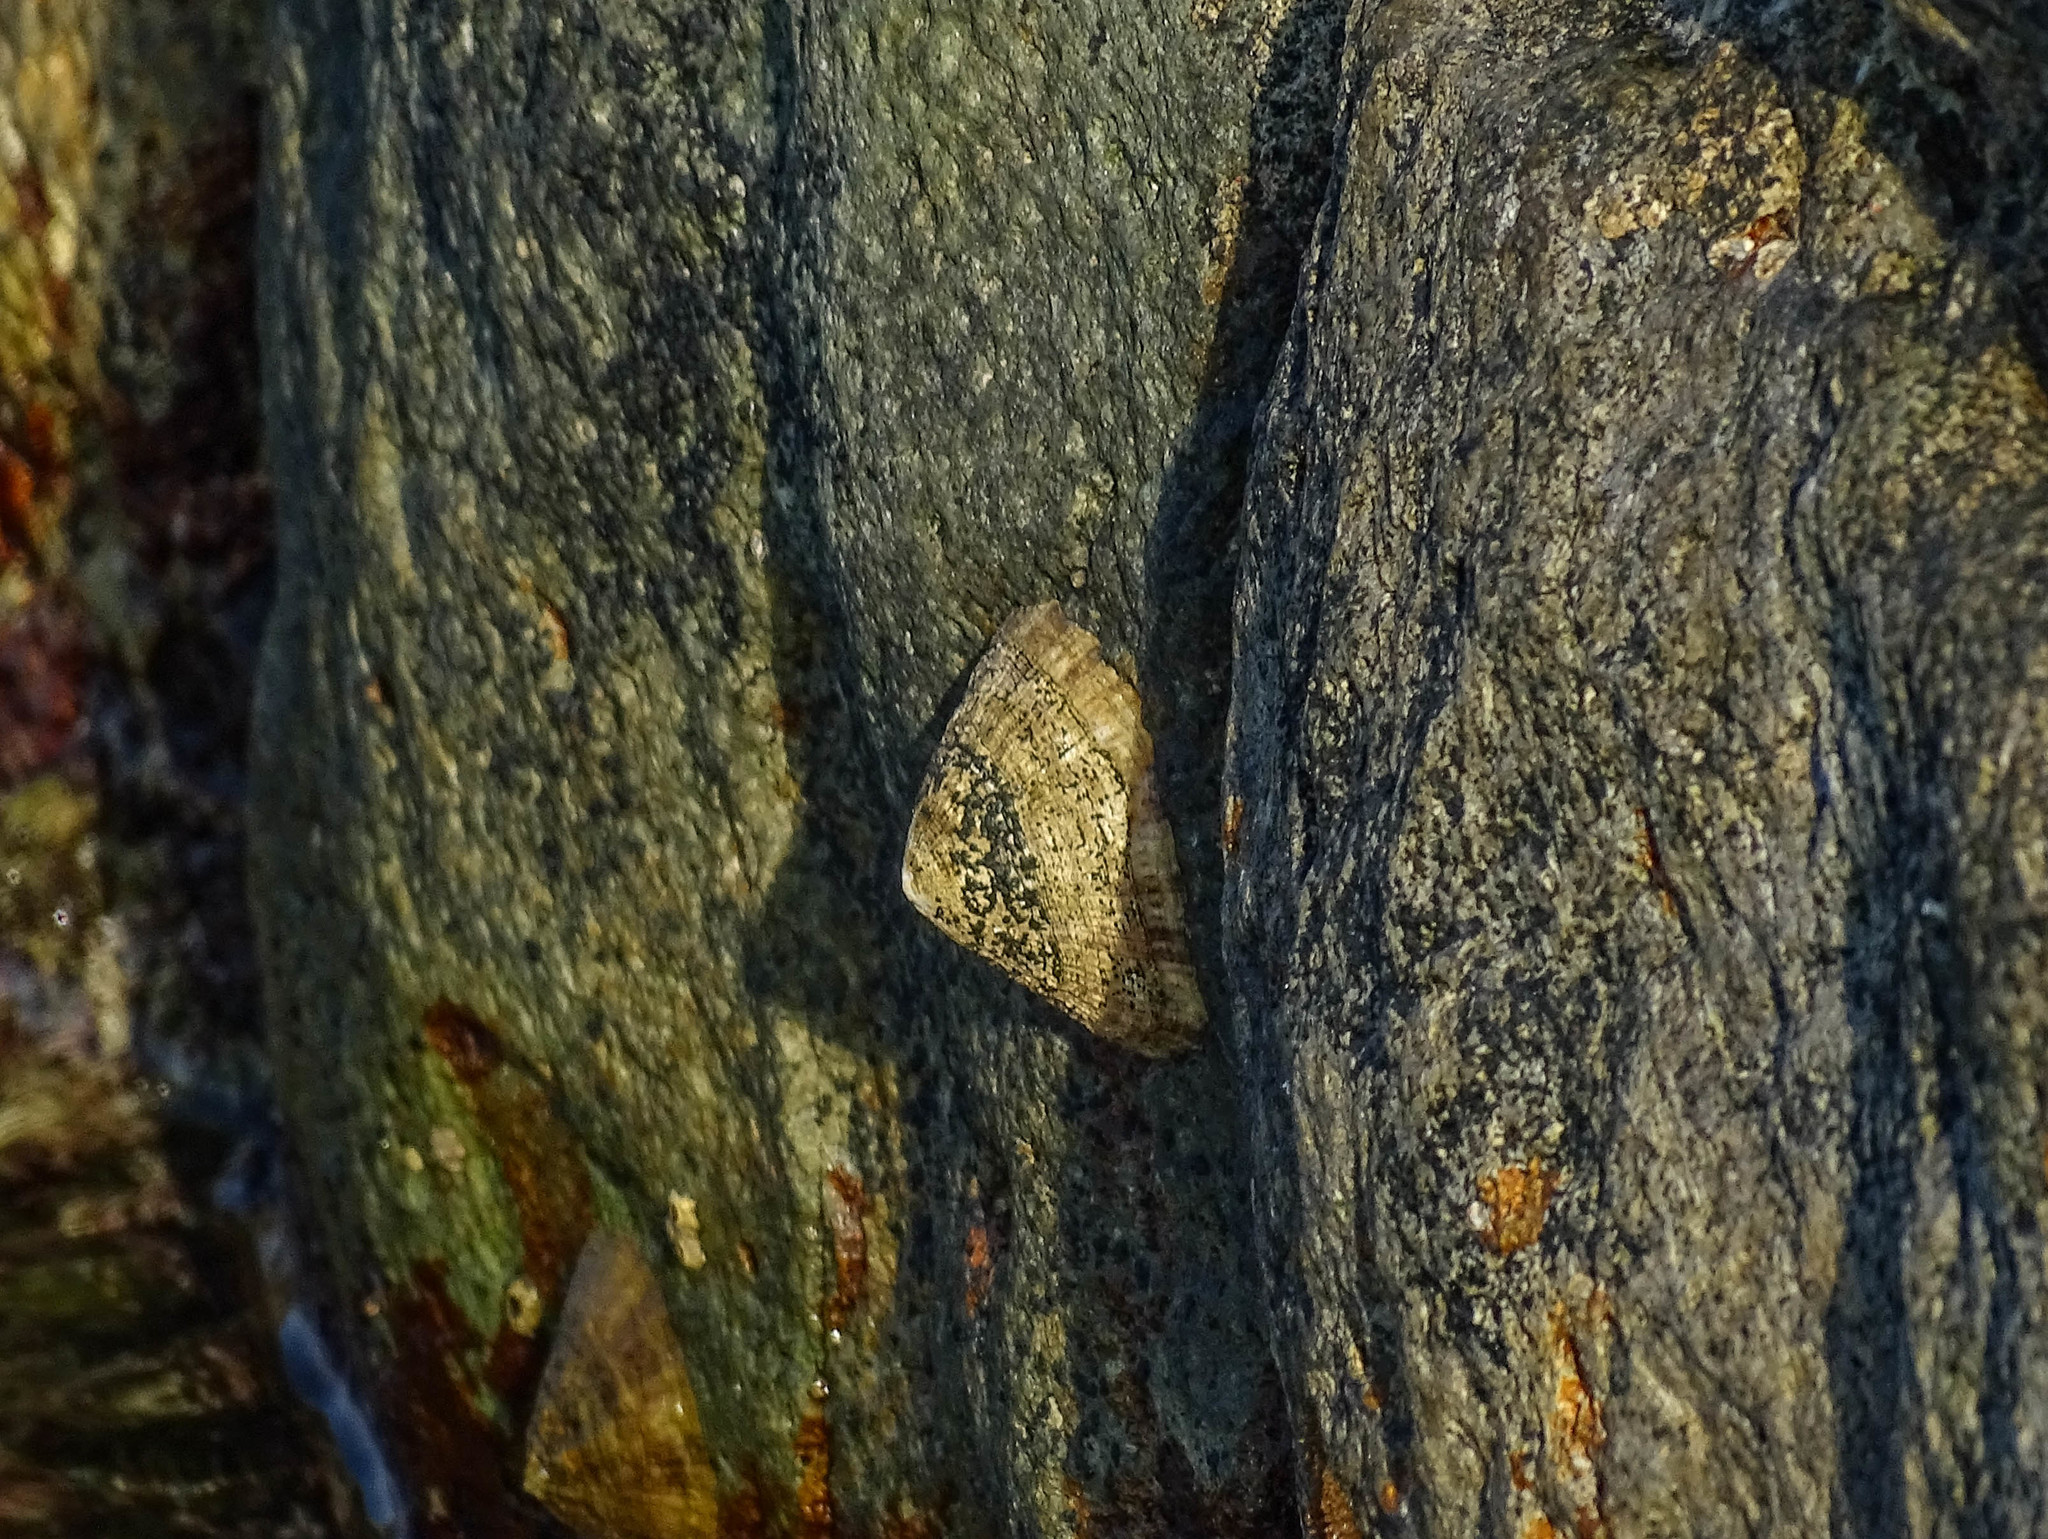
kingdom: Animalia
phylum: Mollusca
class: Gastropoda
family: Patellidae
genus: Patella
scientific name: Patella
